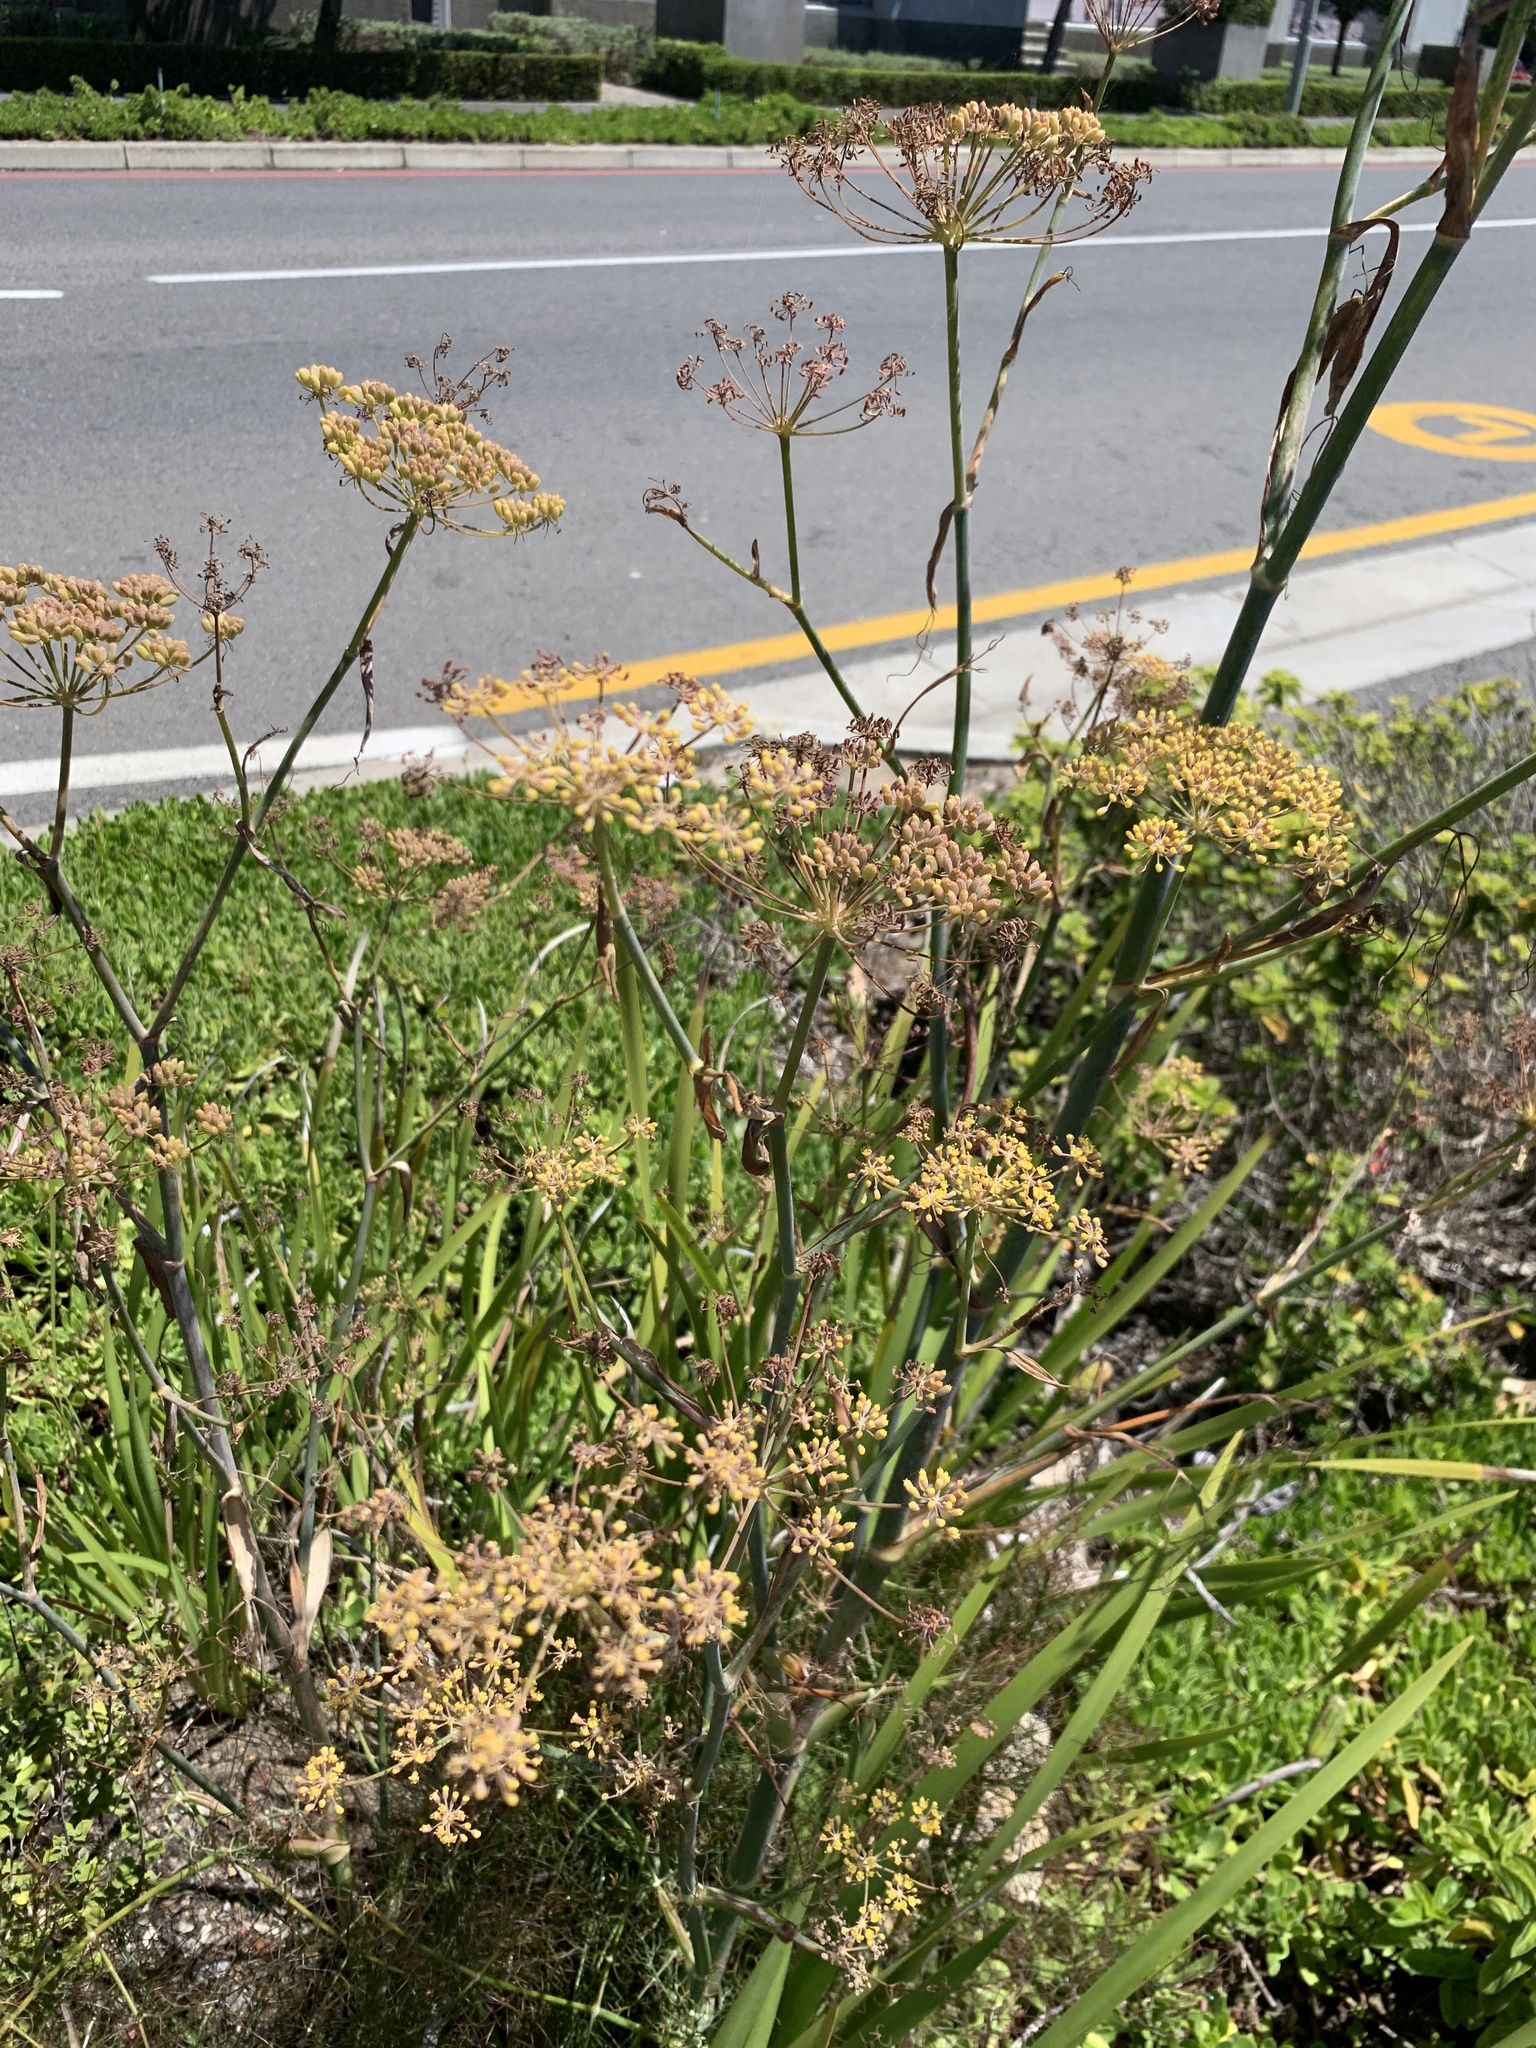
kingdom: Plantae
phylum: Tracheophyta
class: Magnoliopsida
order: Apiales
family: Apiaceae
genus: Foeniculum
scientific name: Foeniculum vulgare
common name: Fennel
